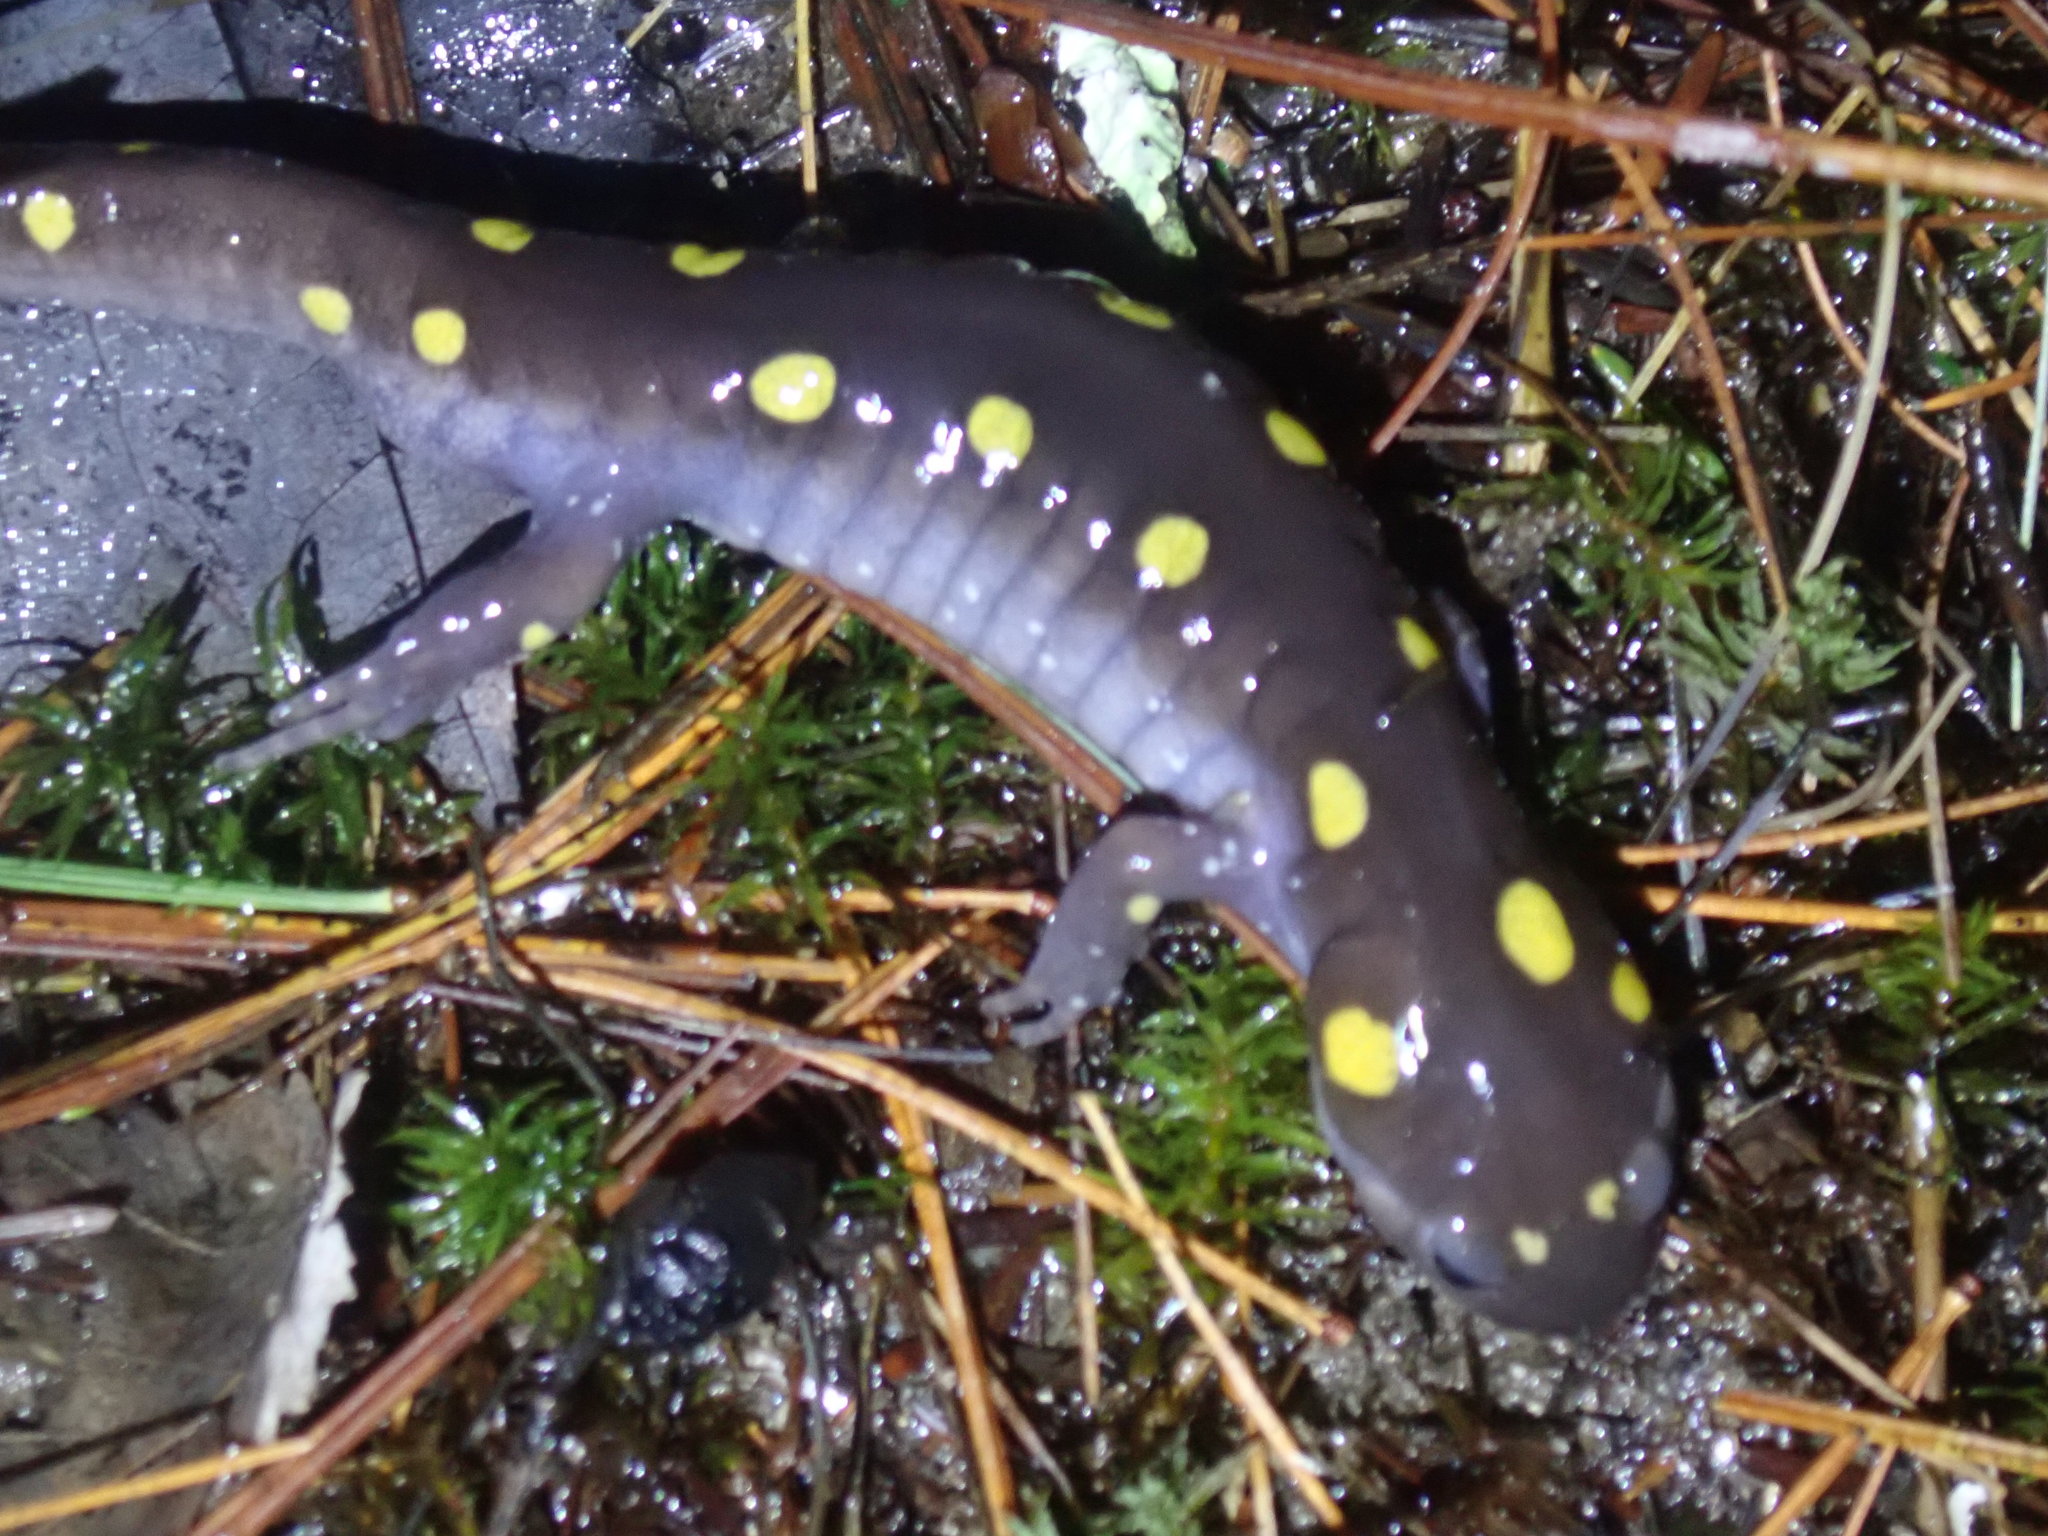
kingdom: Animalia
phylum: Chordata
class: Amphibia
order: Caudata
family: Ambystomatidae
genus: Ambystoma
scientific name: Ambystoma maculatum
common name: Spotted salamander
